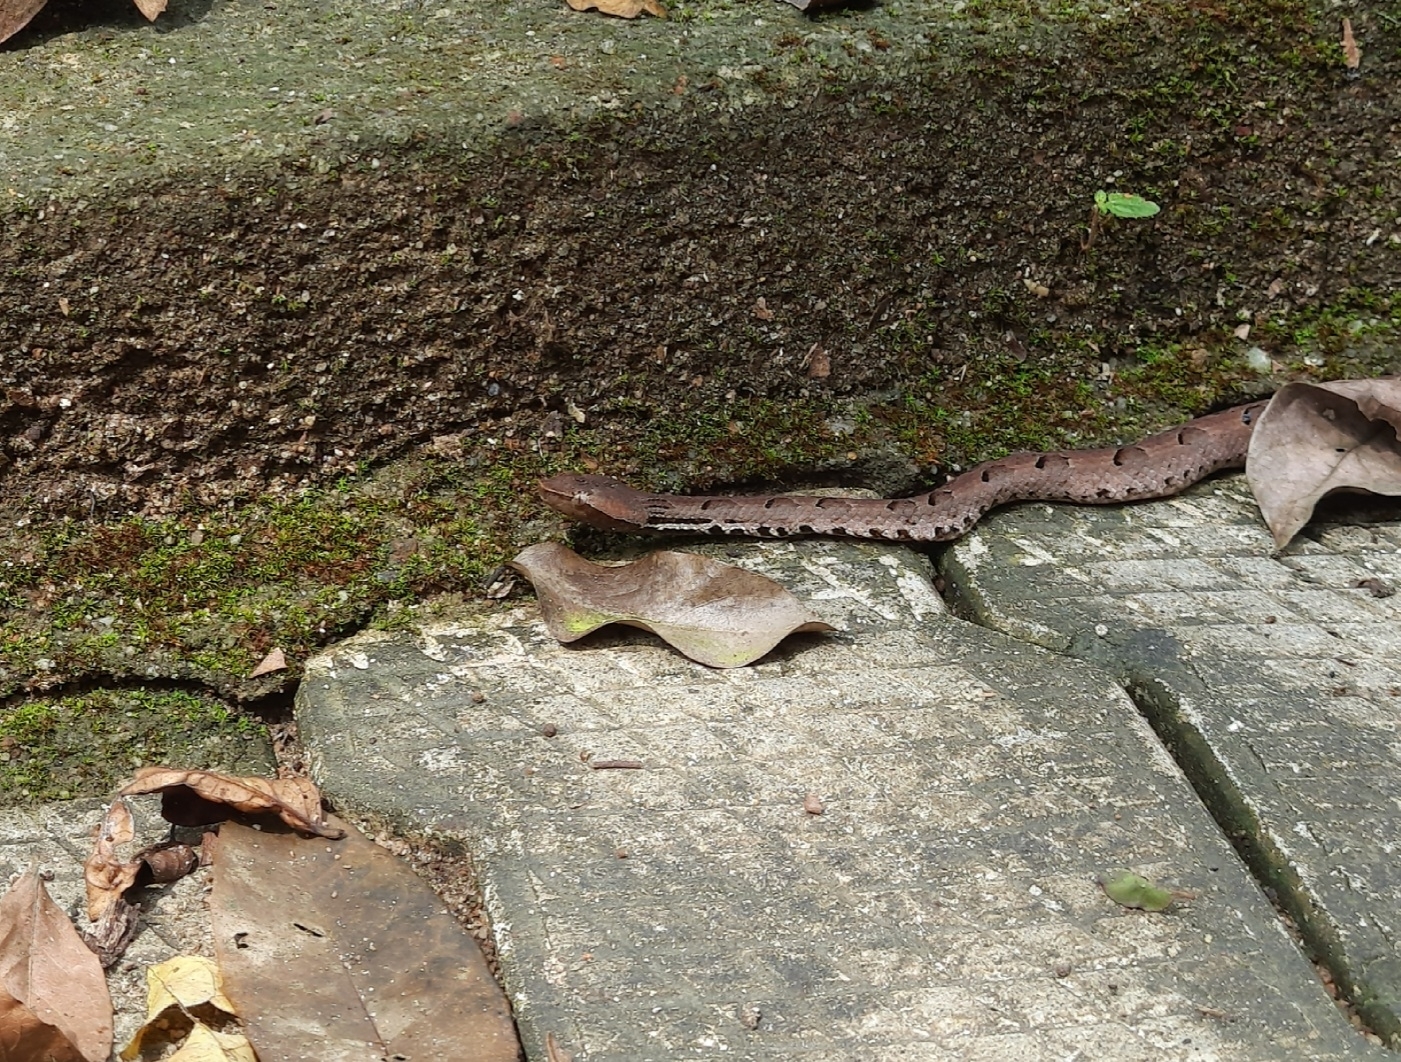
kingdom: Animalia
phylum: Chordata
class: Squamata
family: Viperidae
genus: Hypnale
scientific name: Hypnale hypnale
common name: Hump-nosed moccasin
